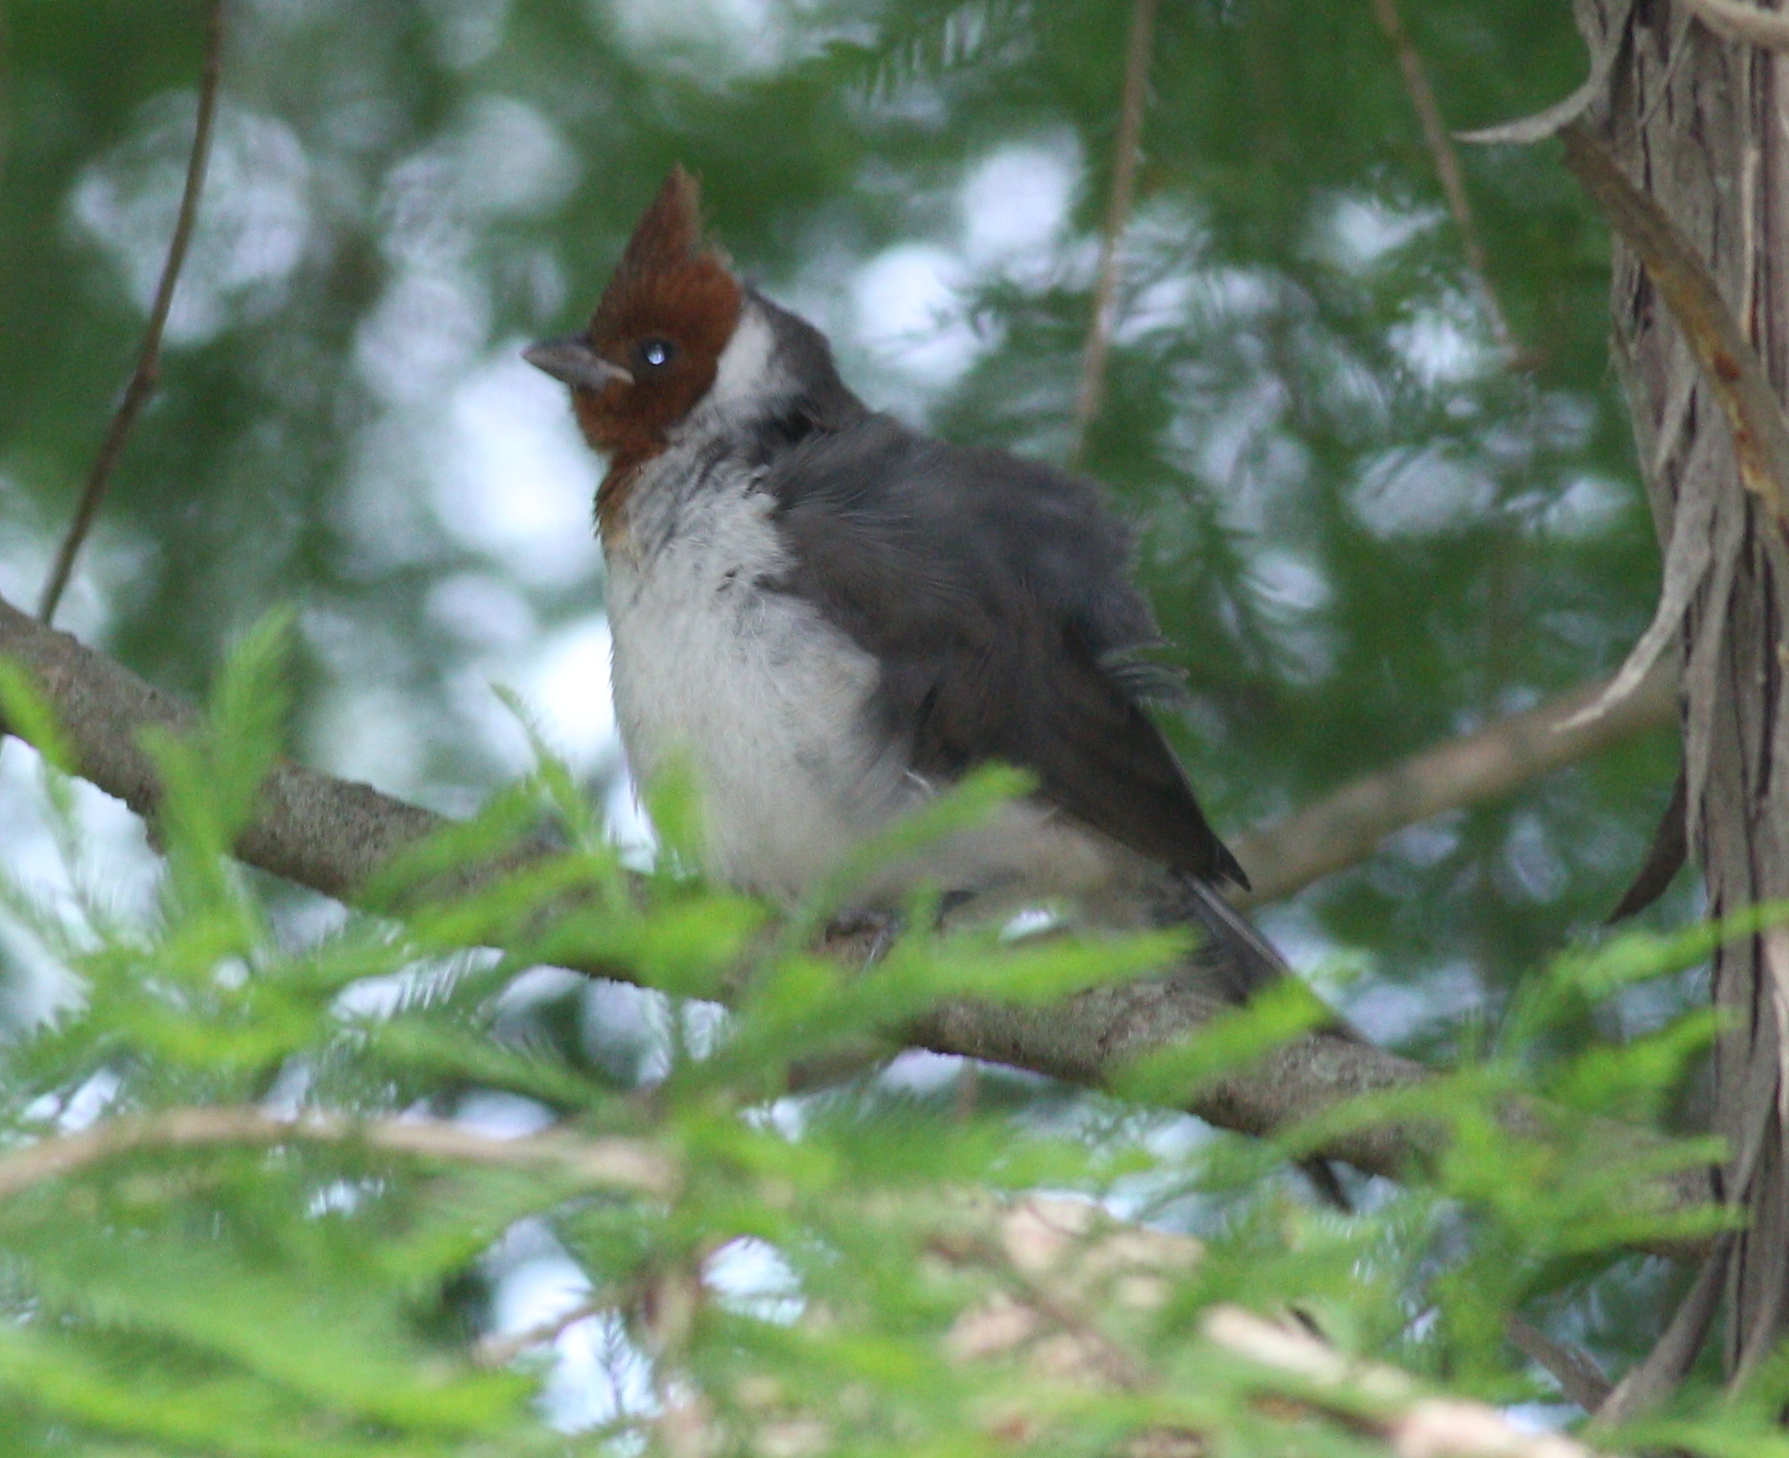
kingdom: Animalia
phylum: Chordata
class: Aves
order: Passeriformes
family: Thraupidae
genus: Paroaria
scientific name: Paroaria coronata
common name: Red-crested cardinal
